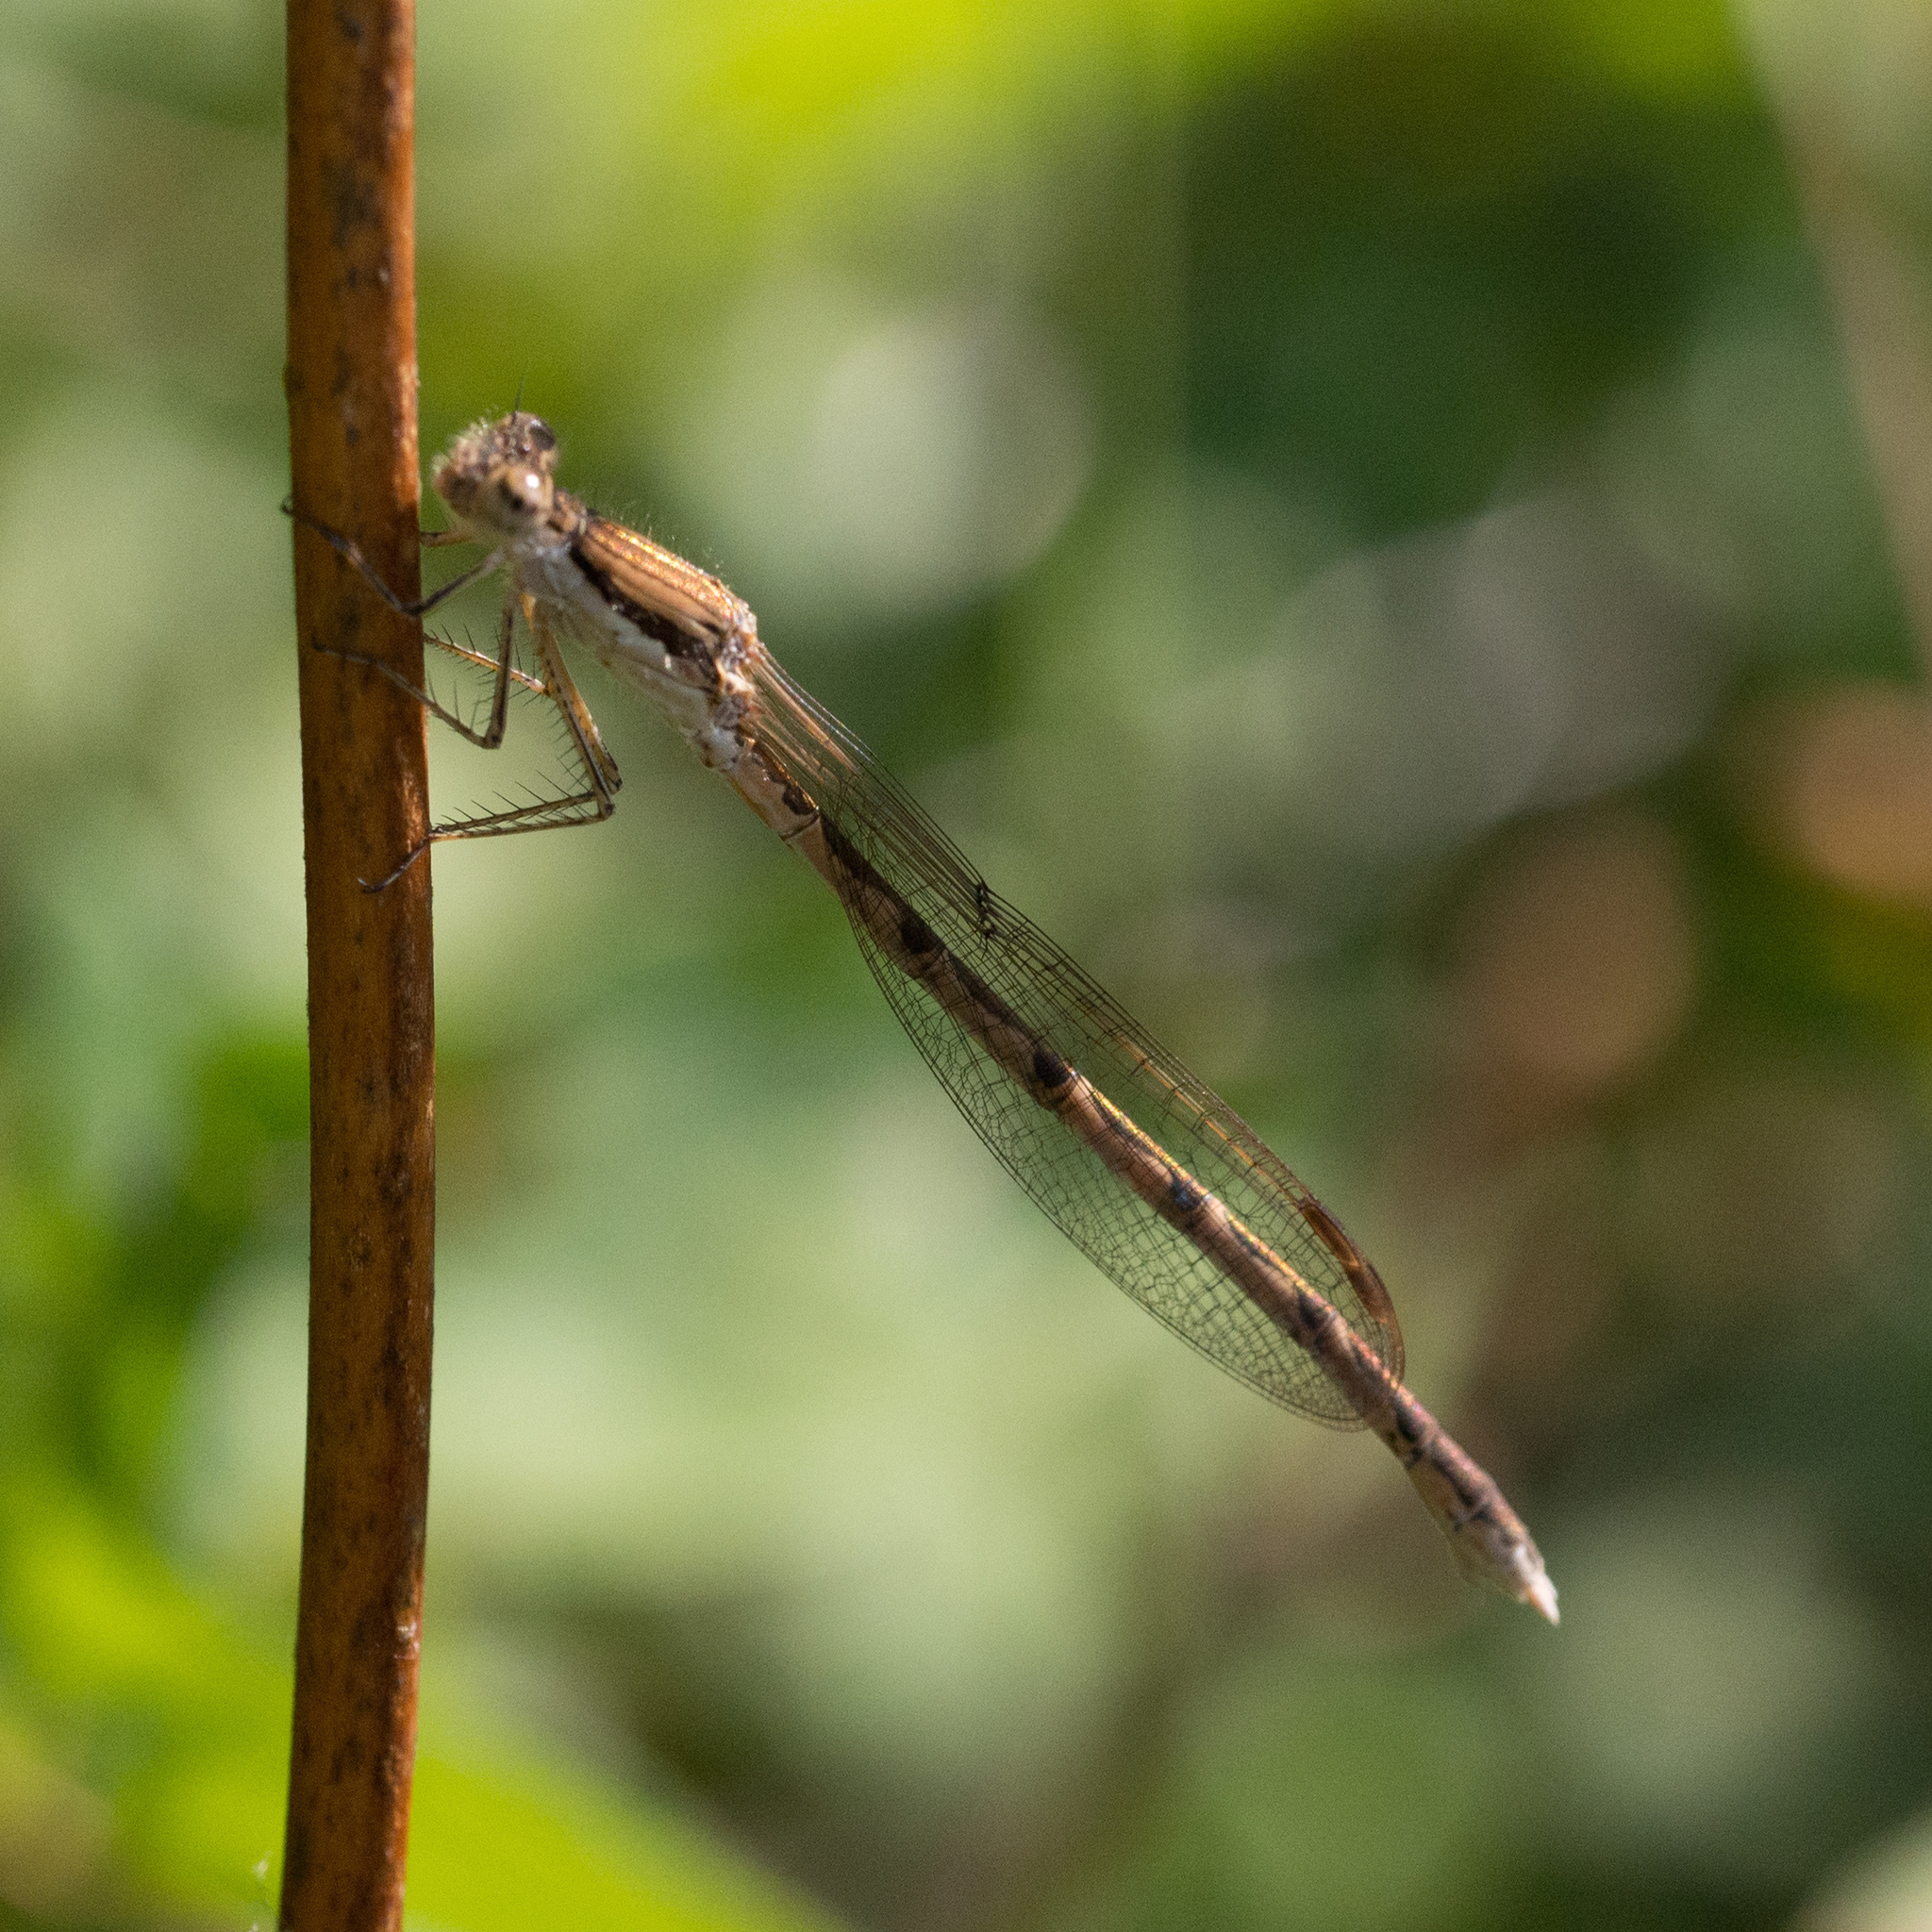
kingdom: Animalia
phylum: Arthropoda
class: Insecta
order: Odonata
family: Lestidae
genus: Sympecma
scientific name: Sympecma fusca
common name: Common winter damsel
